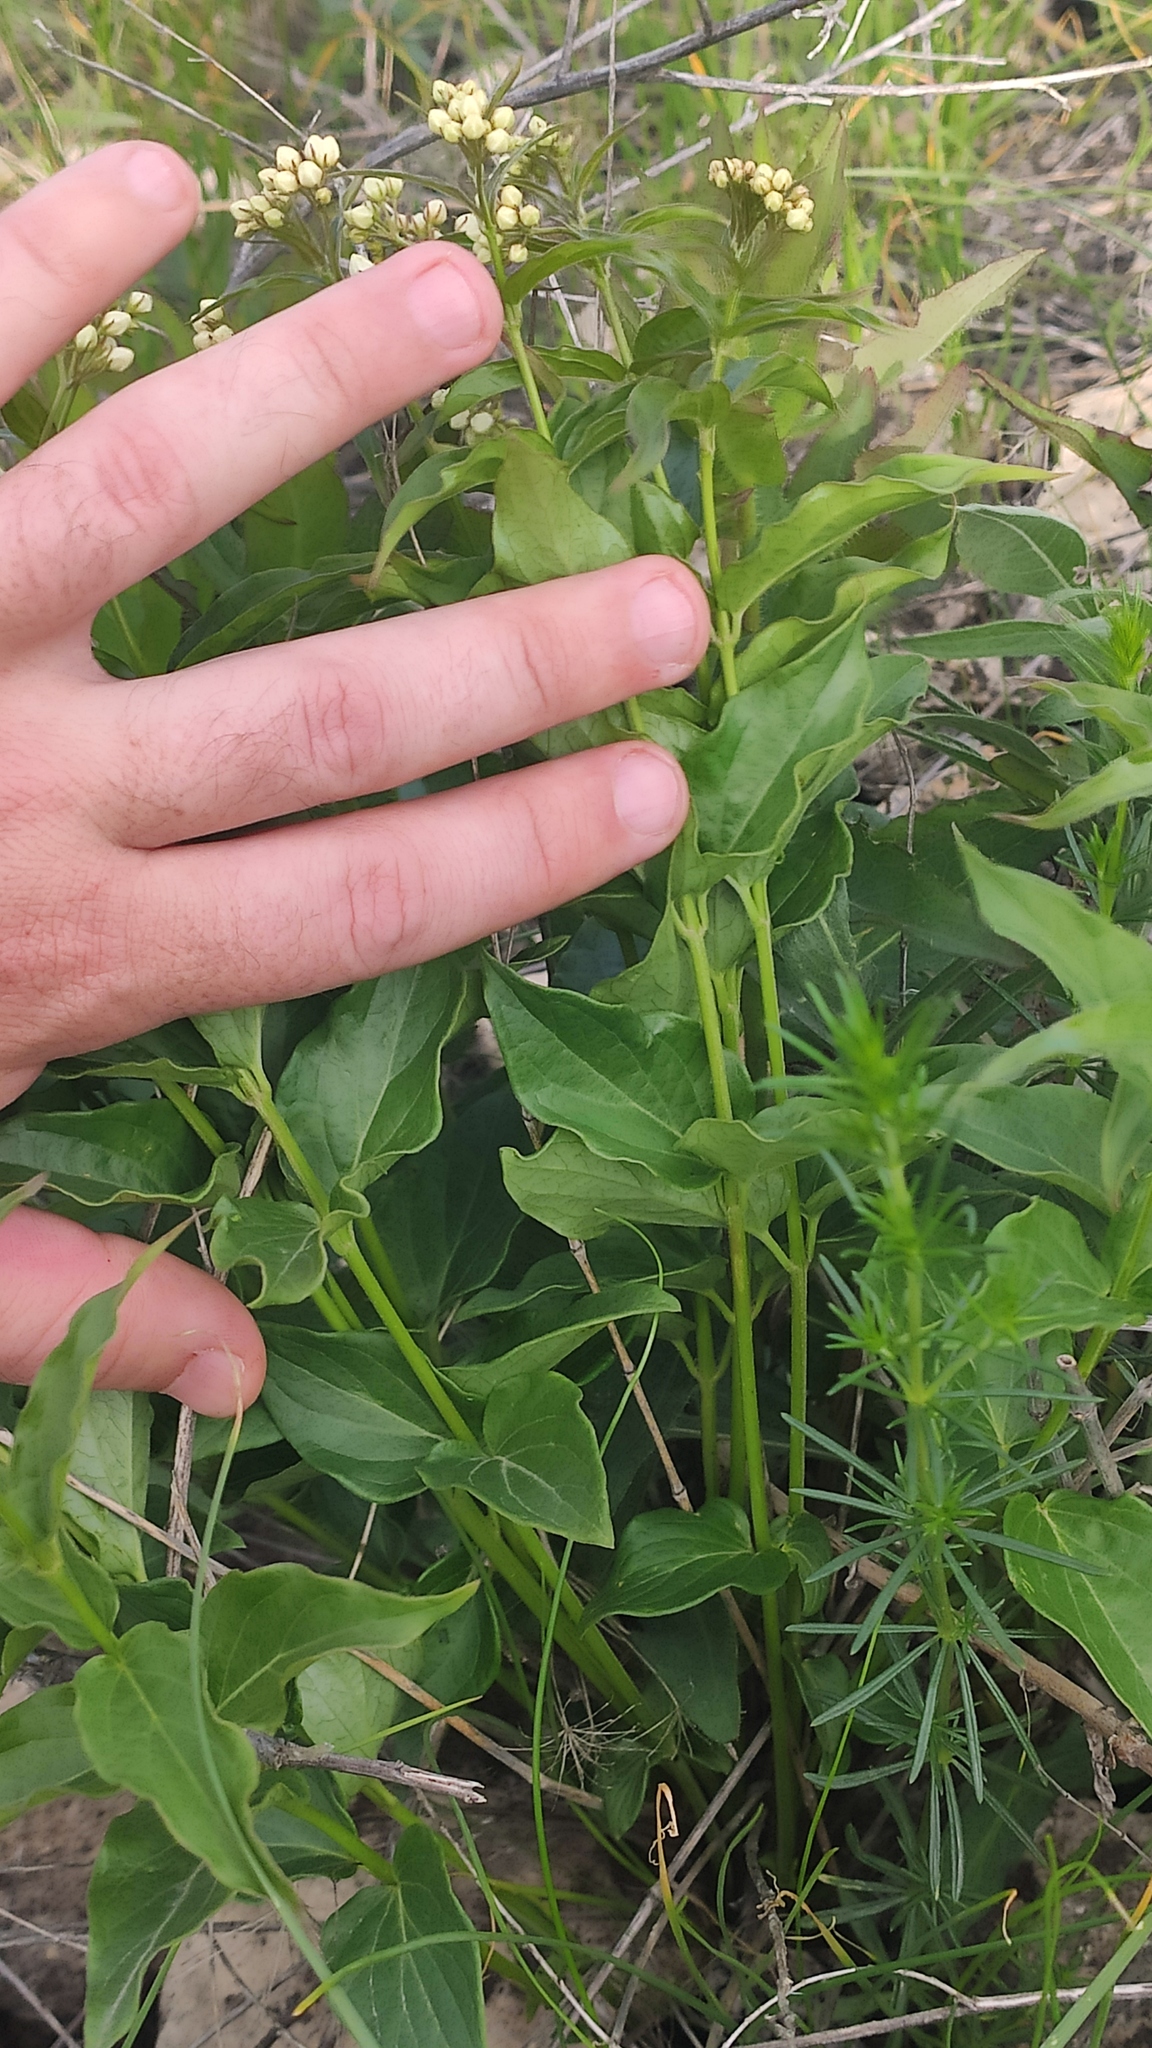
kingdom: Plantae
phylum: Tracheophyta
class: Magnoliopsida
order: Gentianales
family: Apocynaceae
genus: Vincetoxicum
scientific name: Vincetoxicum hirundinaria
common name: White swallowwort
